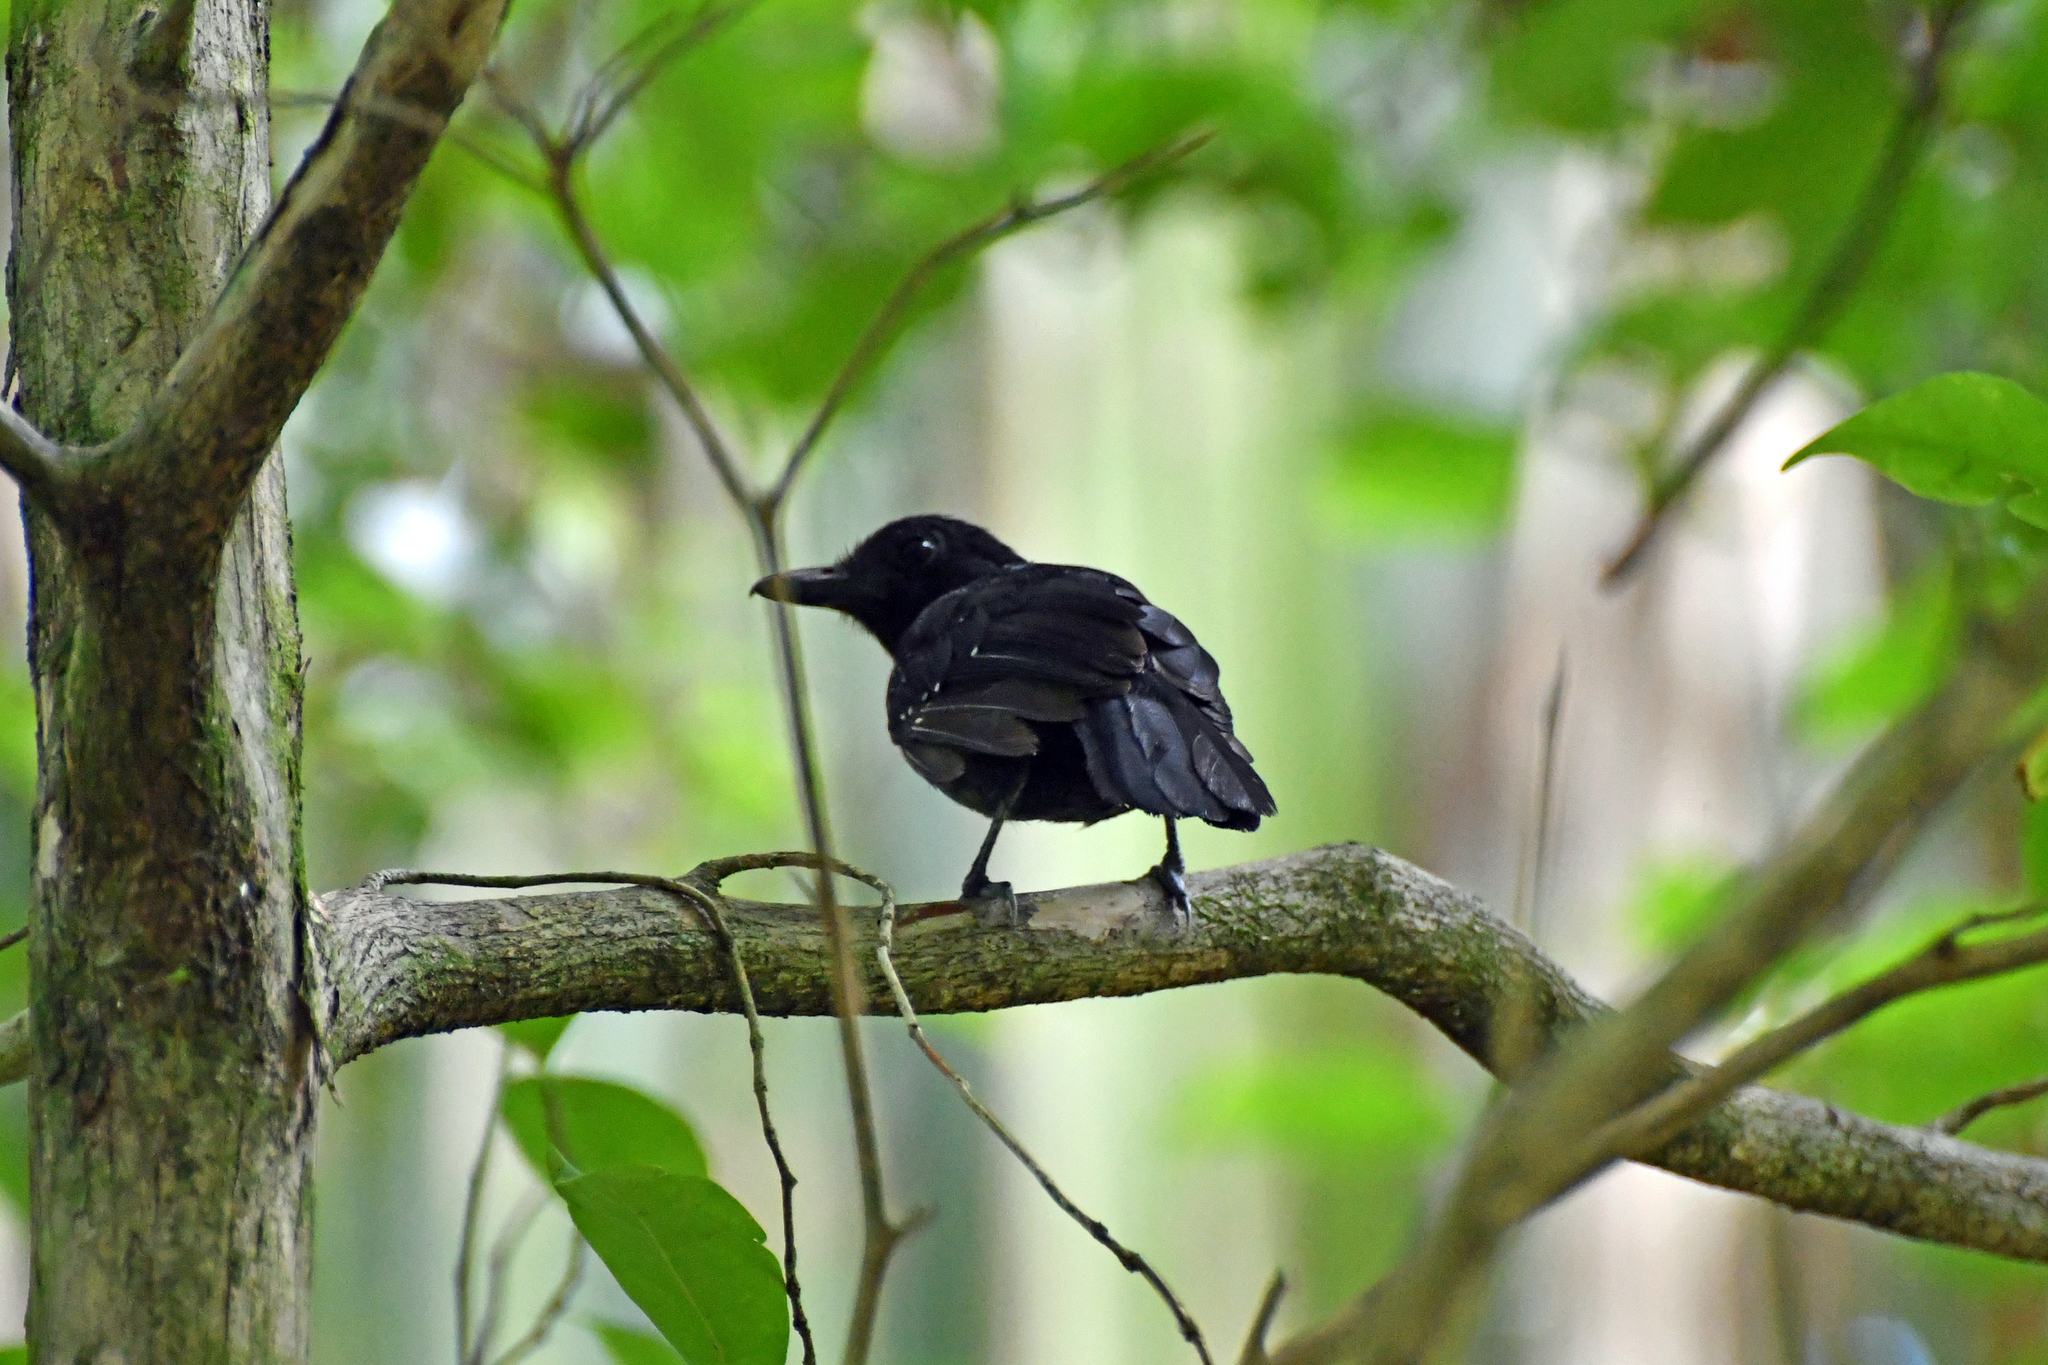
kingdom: Animalia
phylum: Chordata
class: Aves
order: Passeriformes
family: Thamnophilidae
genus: Thamnophilus
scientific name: Thamnophilus bridgesi
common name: Black-hooded antshrike
